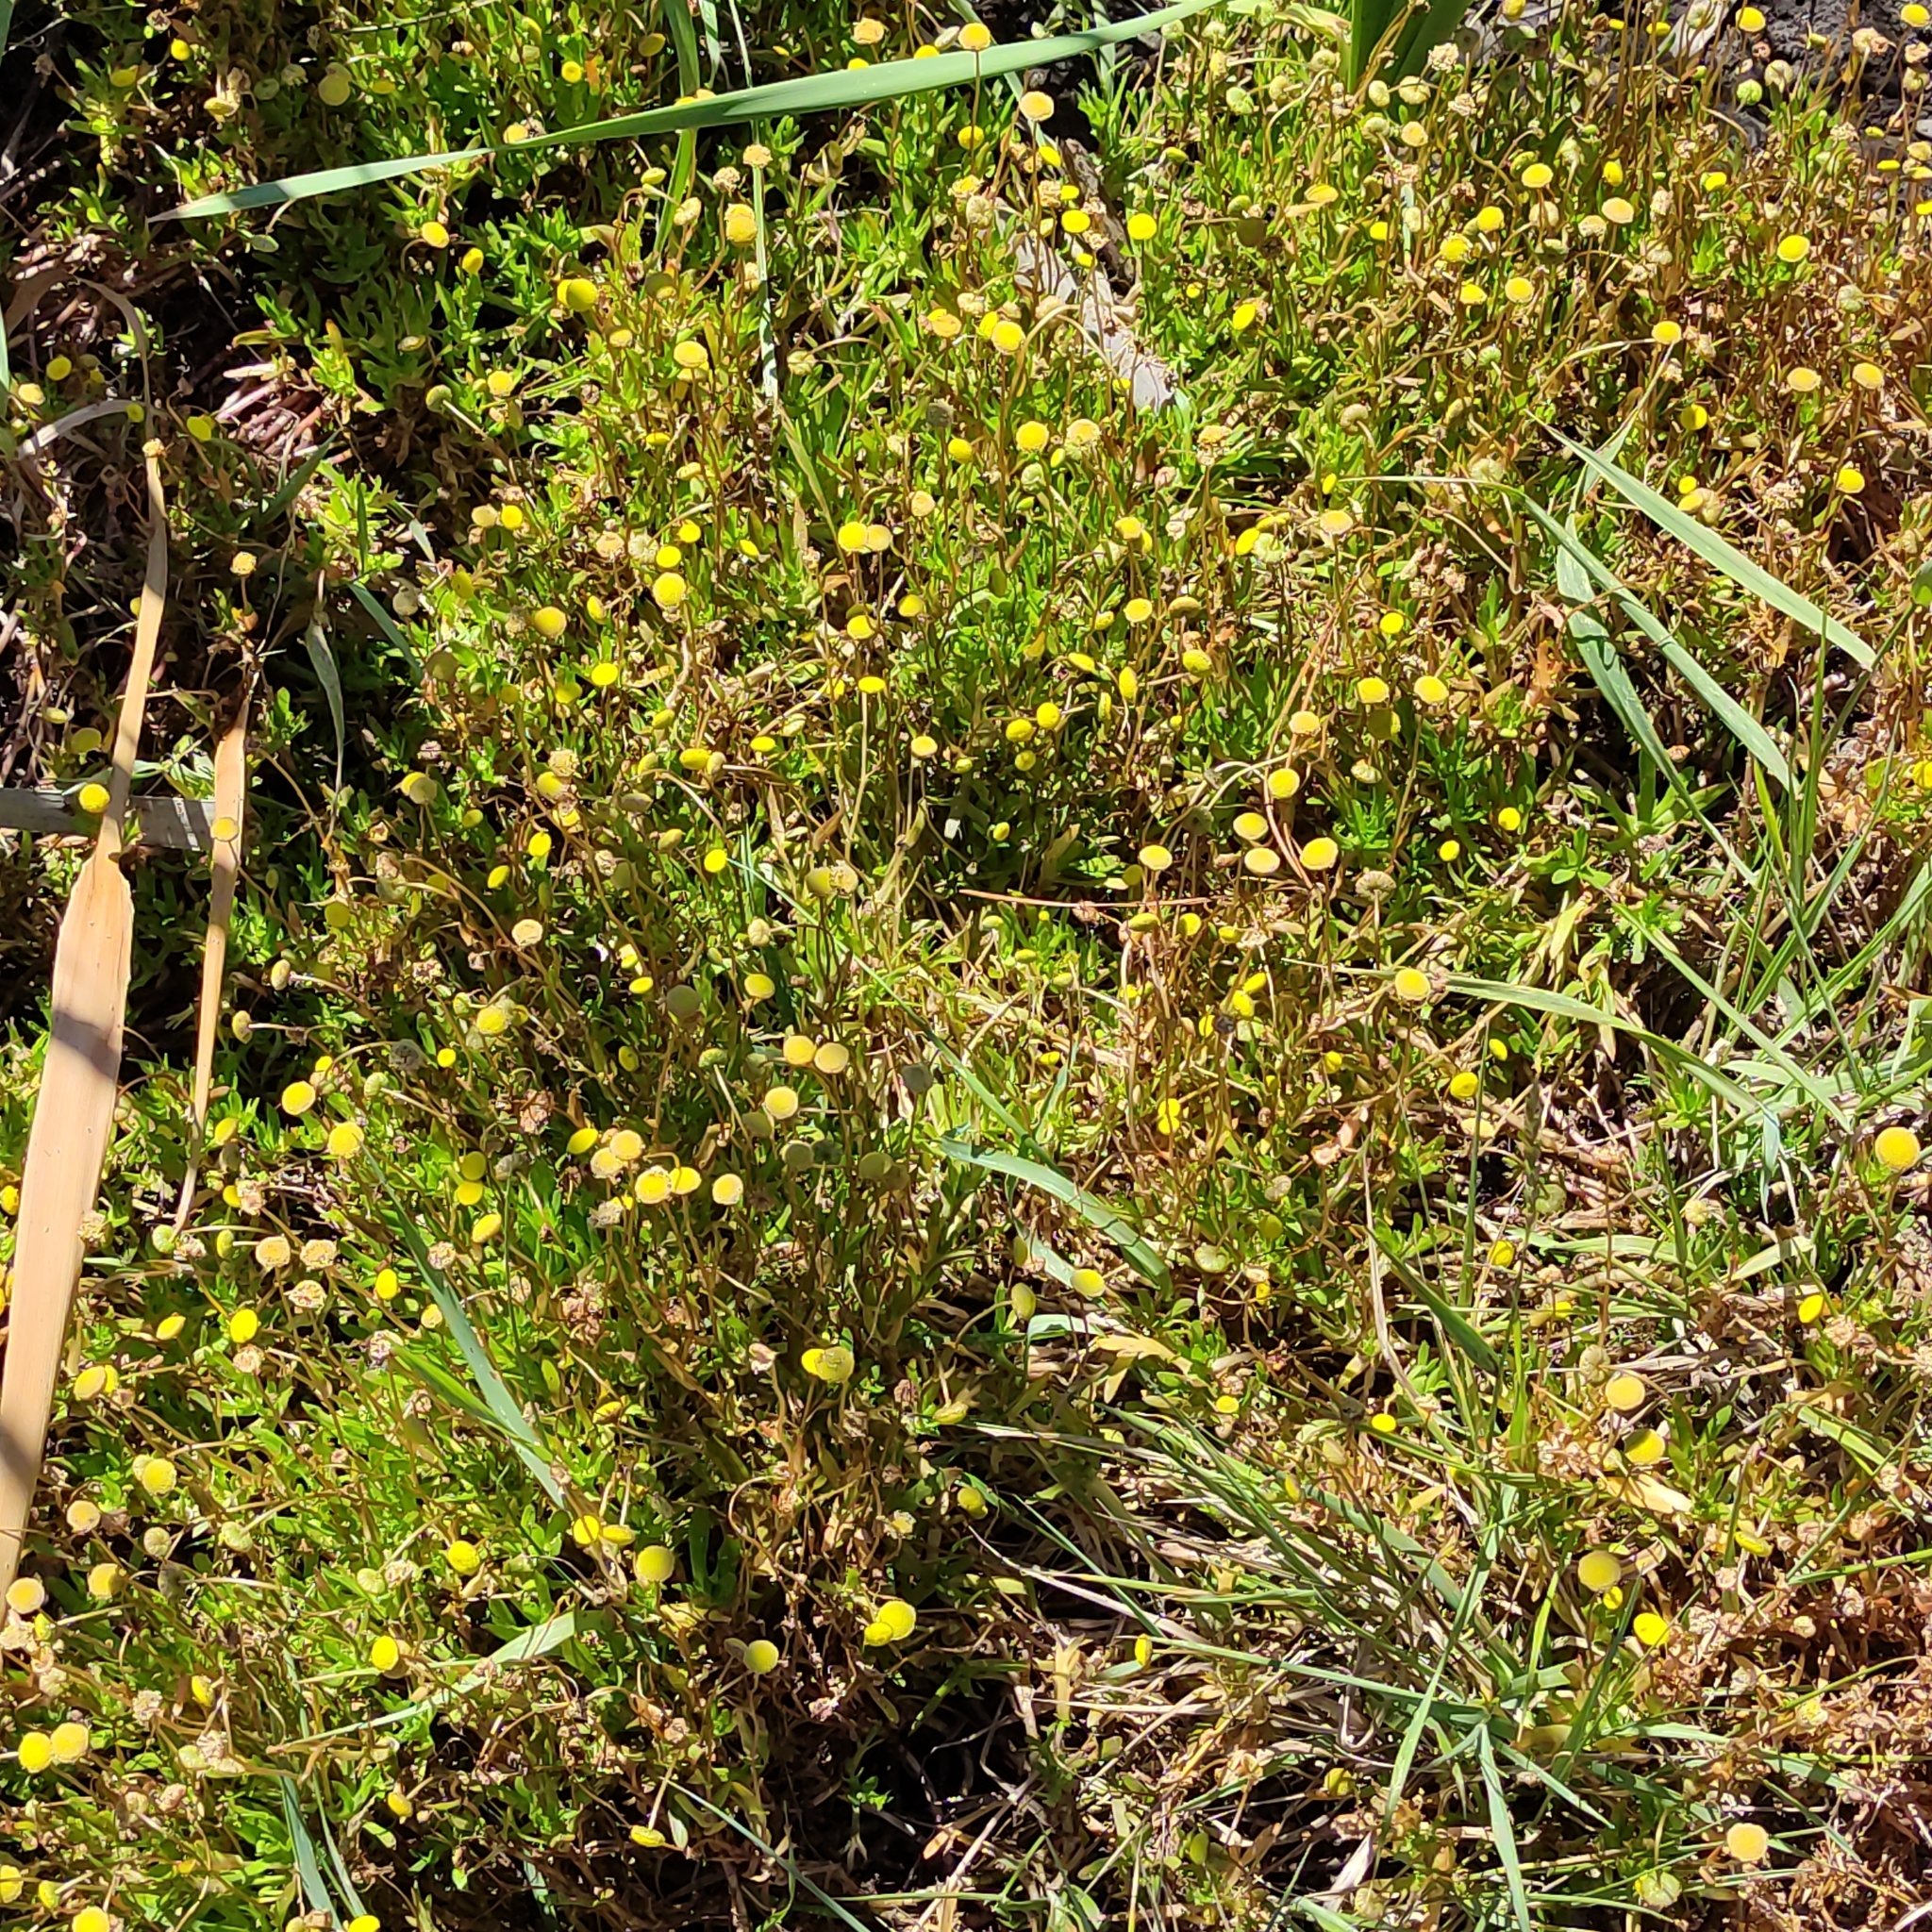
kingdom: Plantae
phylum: Tracheophyta
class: Magnoliopsida
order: Asterales
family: Asteraceae
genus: Cotula
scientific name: Cotula coronopifolia
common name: Buttonweed
